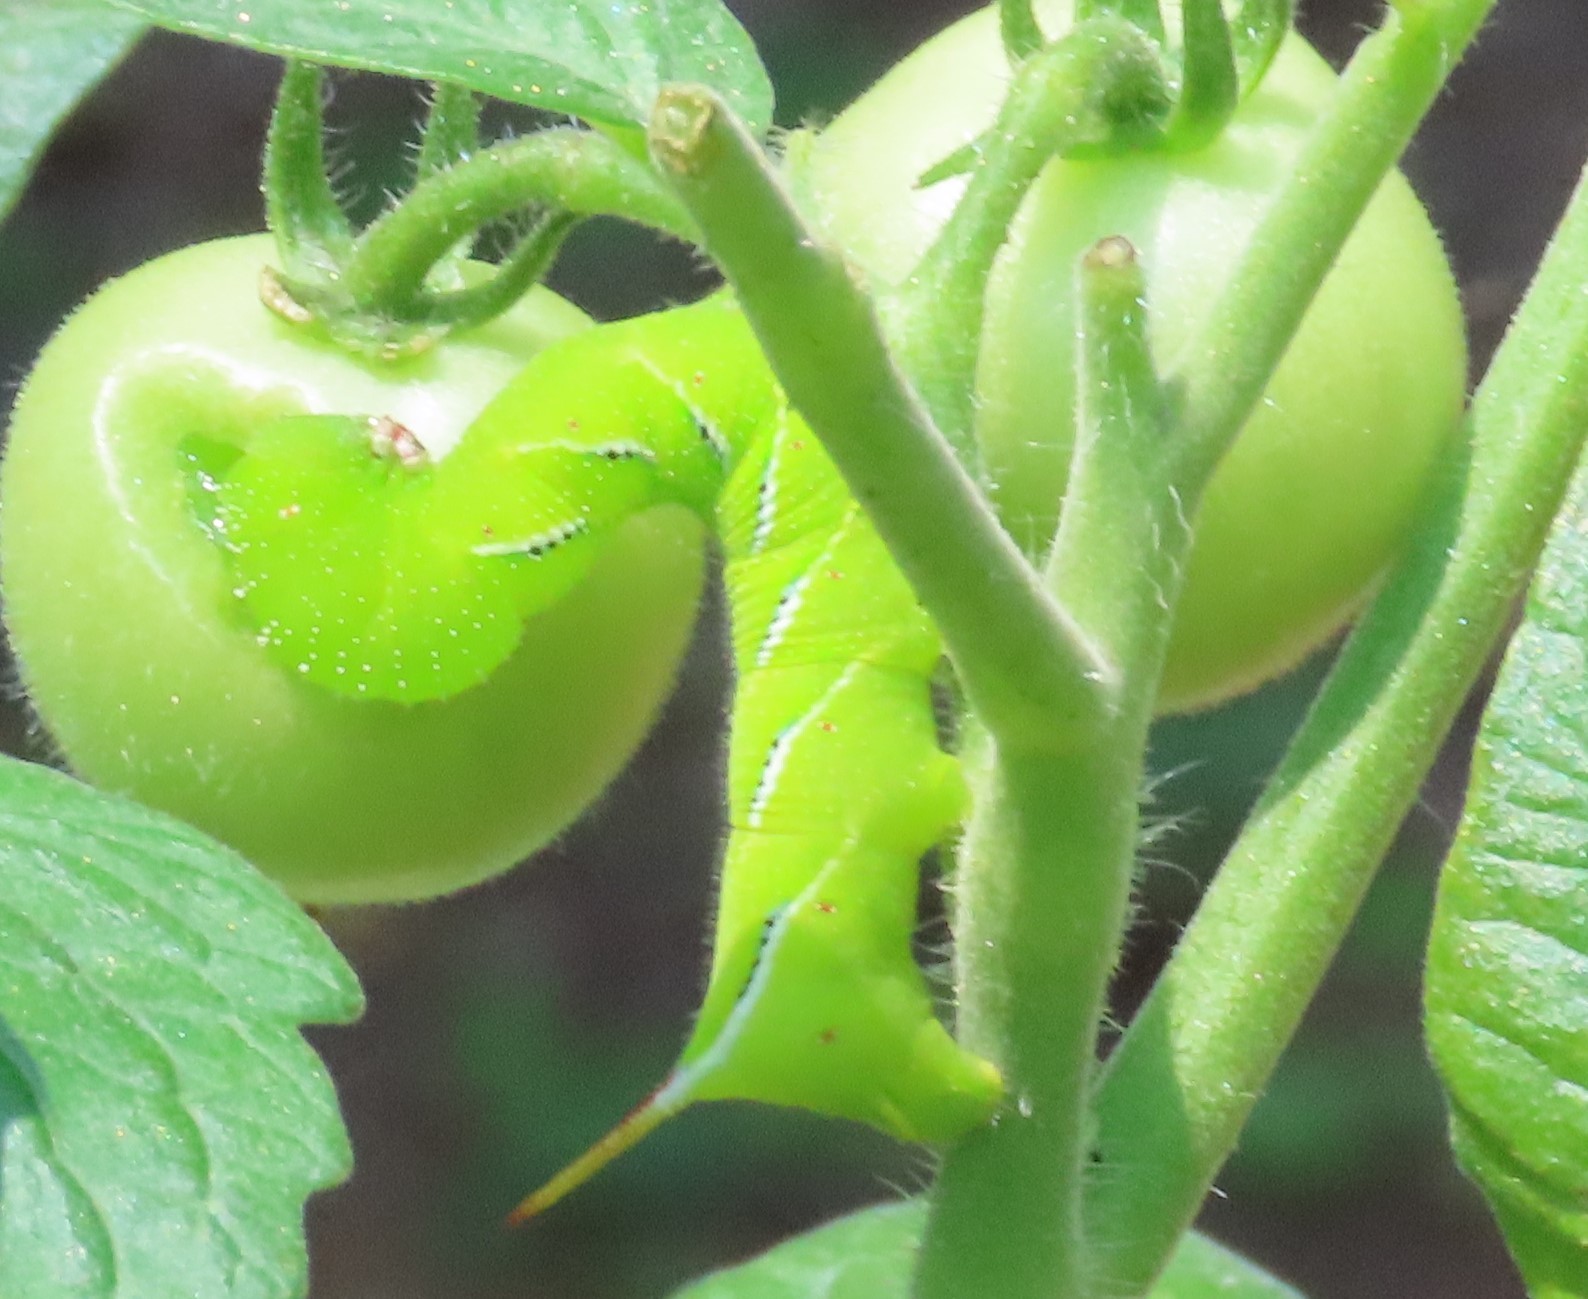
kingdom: Animalia
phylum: Arthropoda
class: Insecta
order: Lepidoptera
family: Sphingidae
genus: Manduca
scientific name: Manduca sexta
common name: Carolina sphinx
